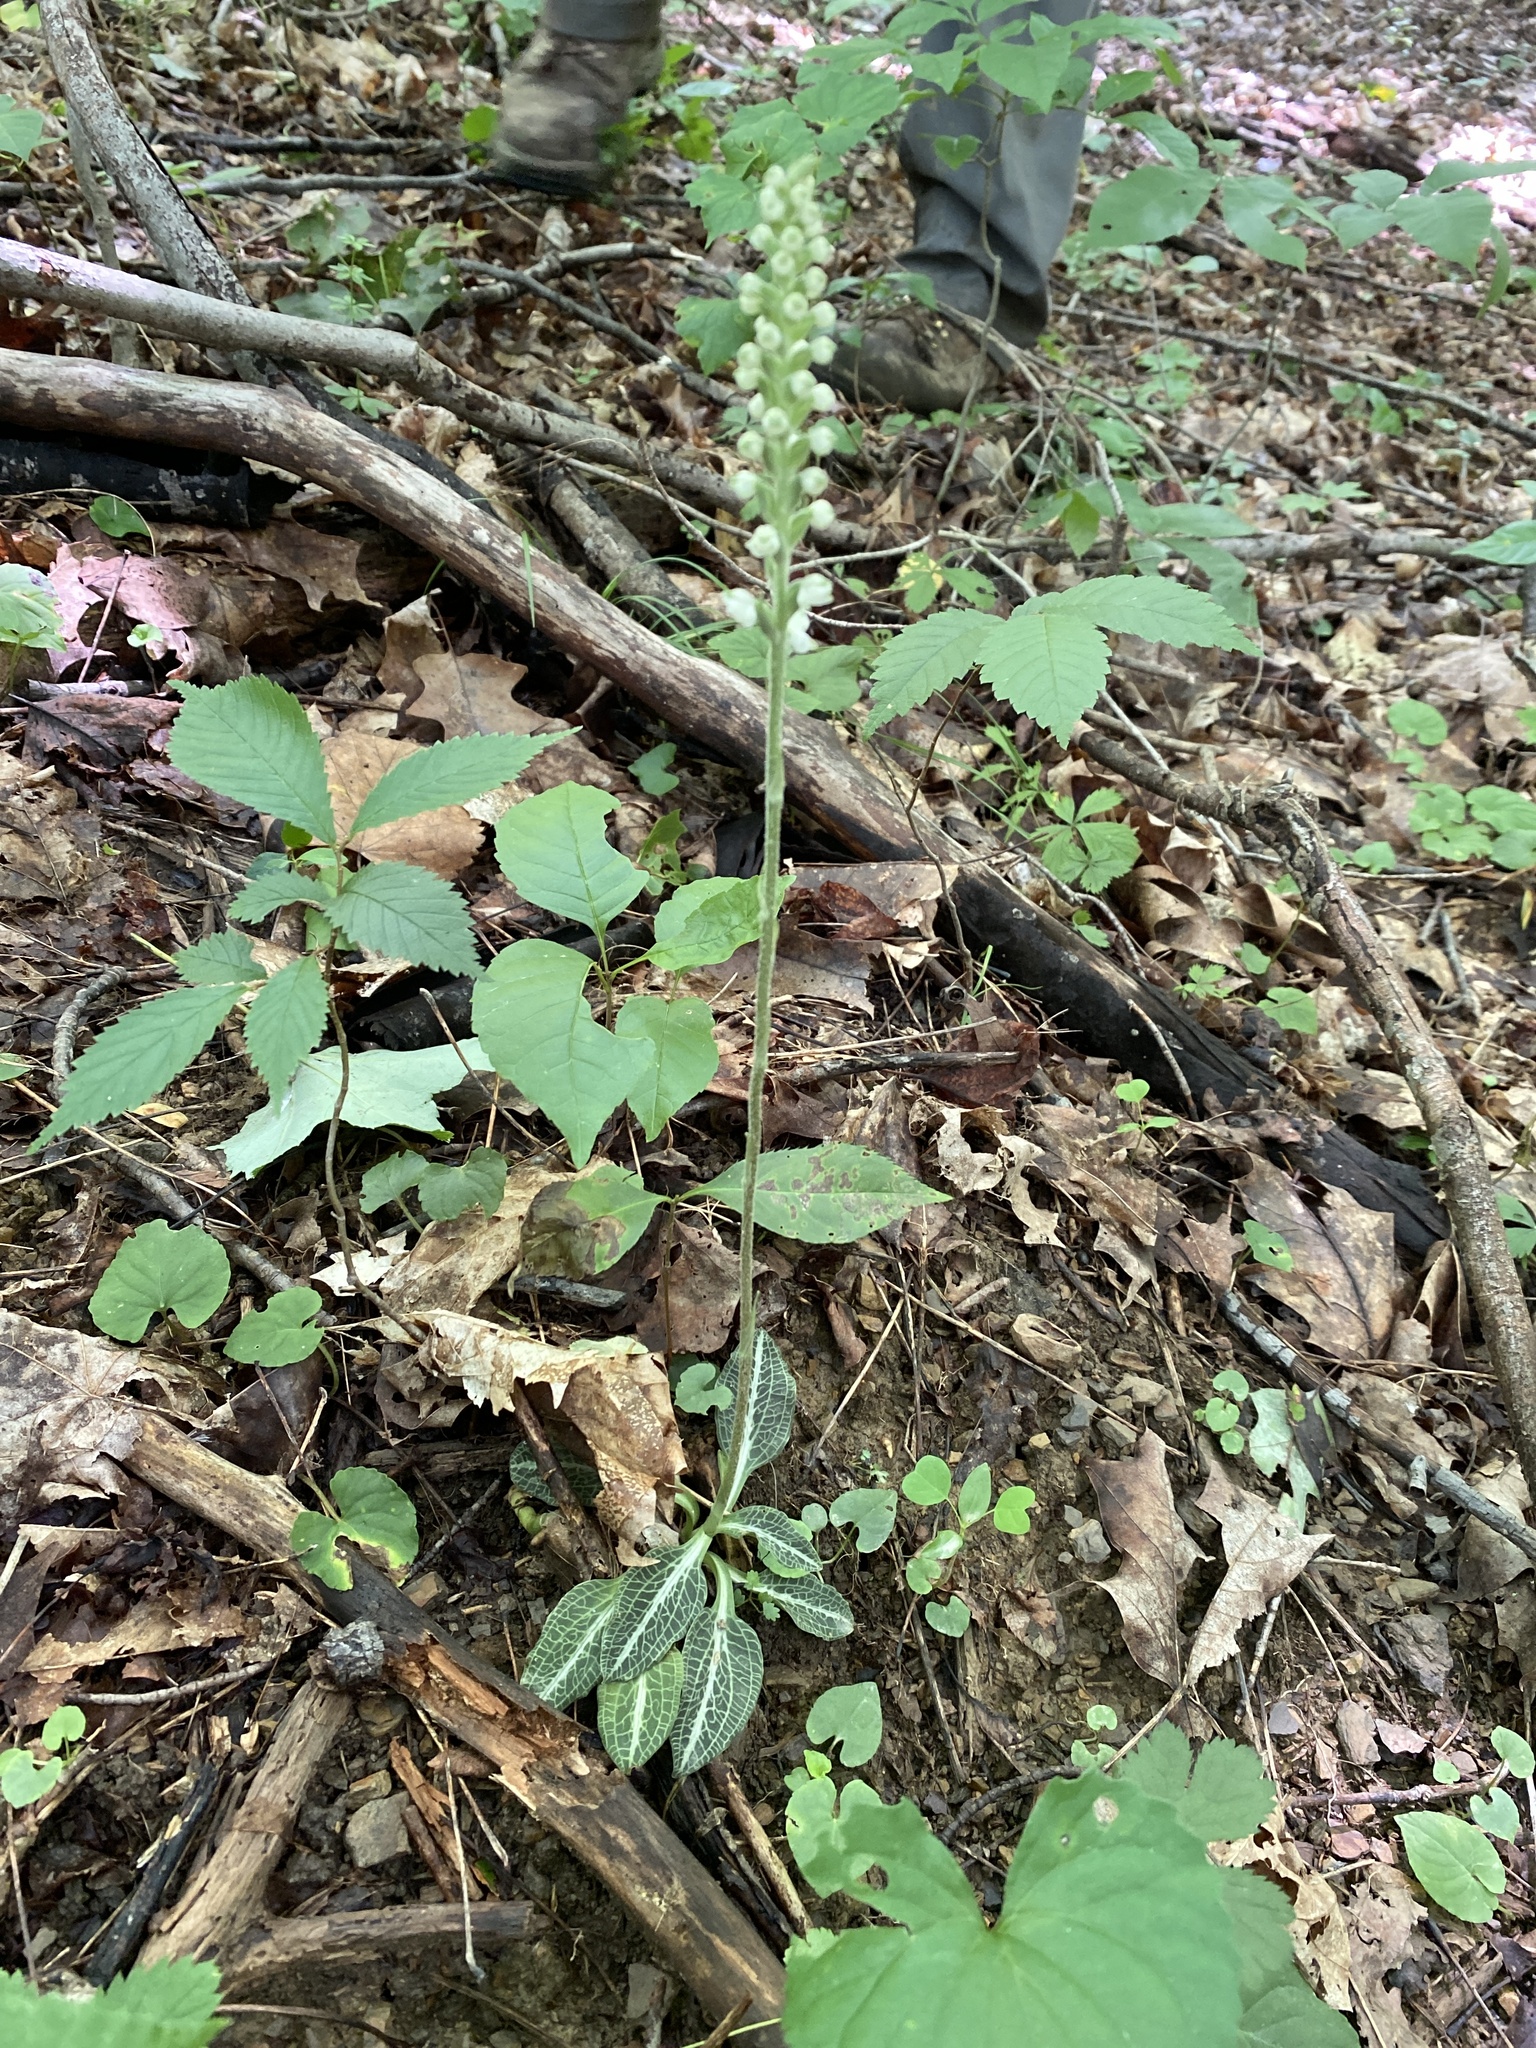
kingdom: Plantae
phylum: Tracheophyta
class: Liliopsida
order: Asparagales
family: Orchidaceae
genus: Goodyera
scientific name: Goodyera pubescens
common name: Downy rattlesnake-plantain
